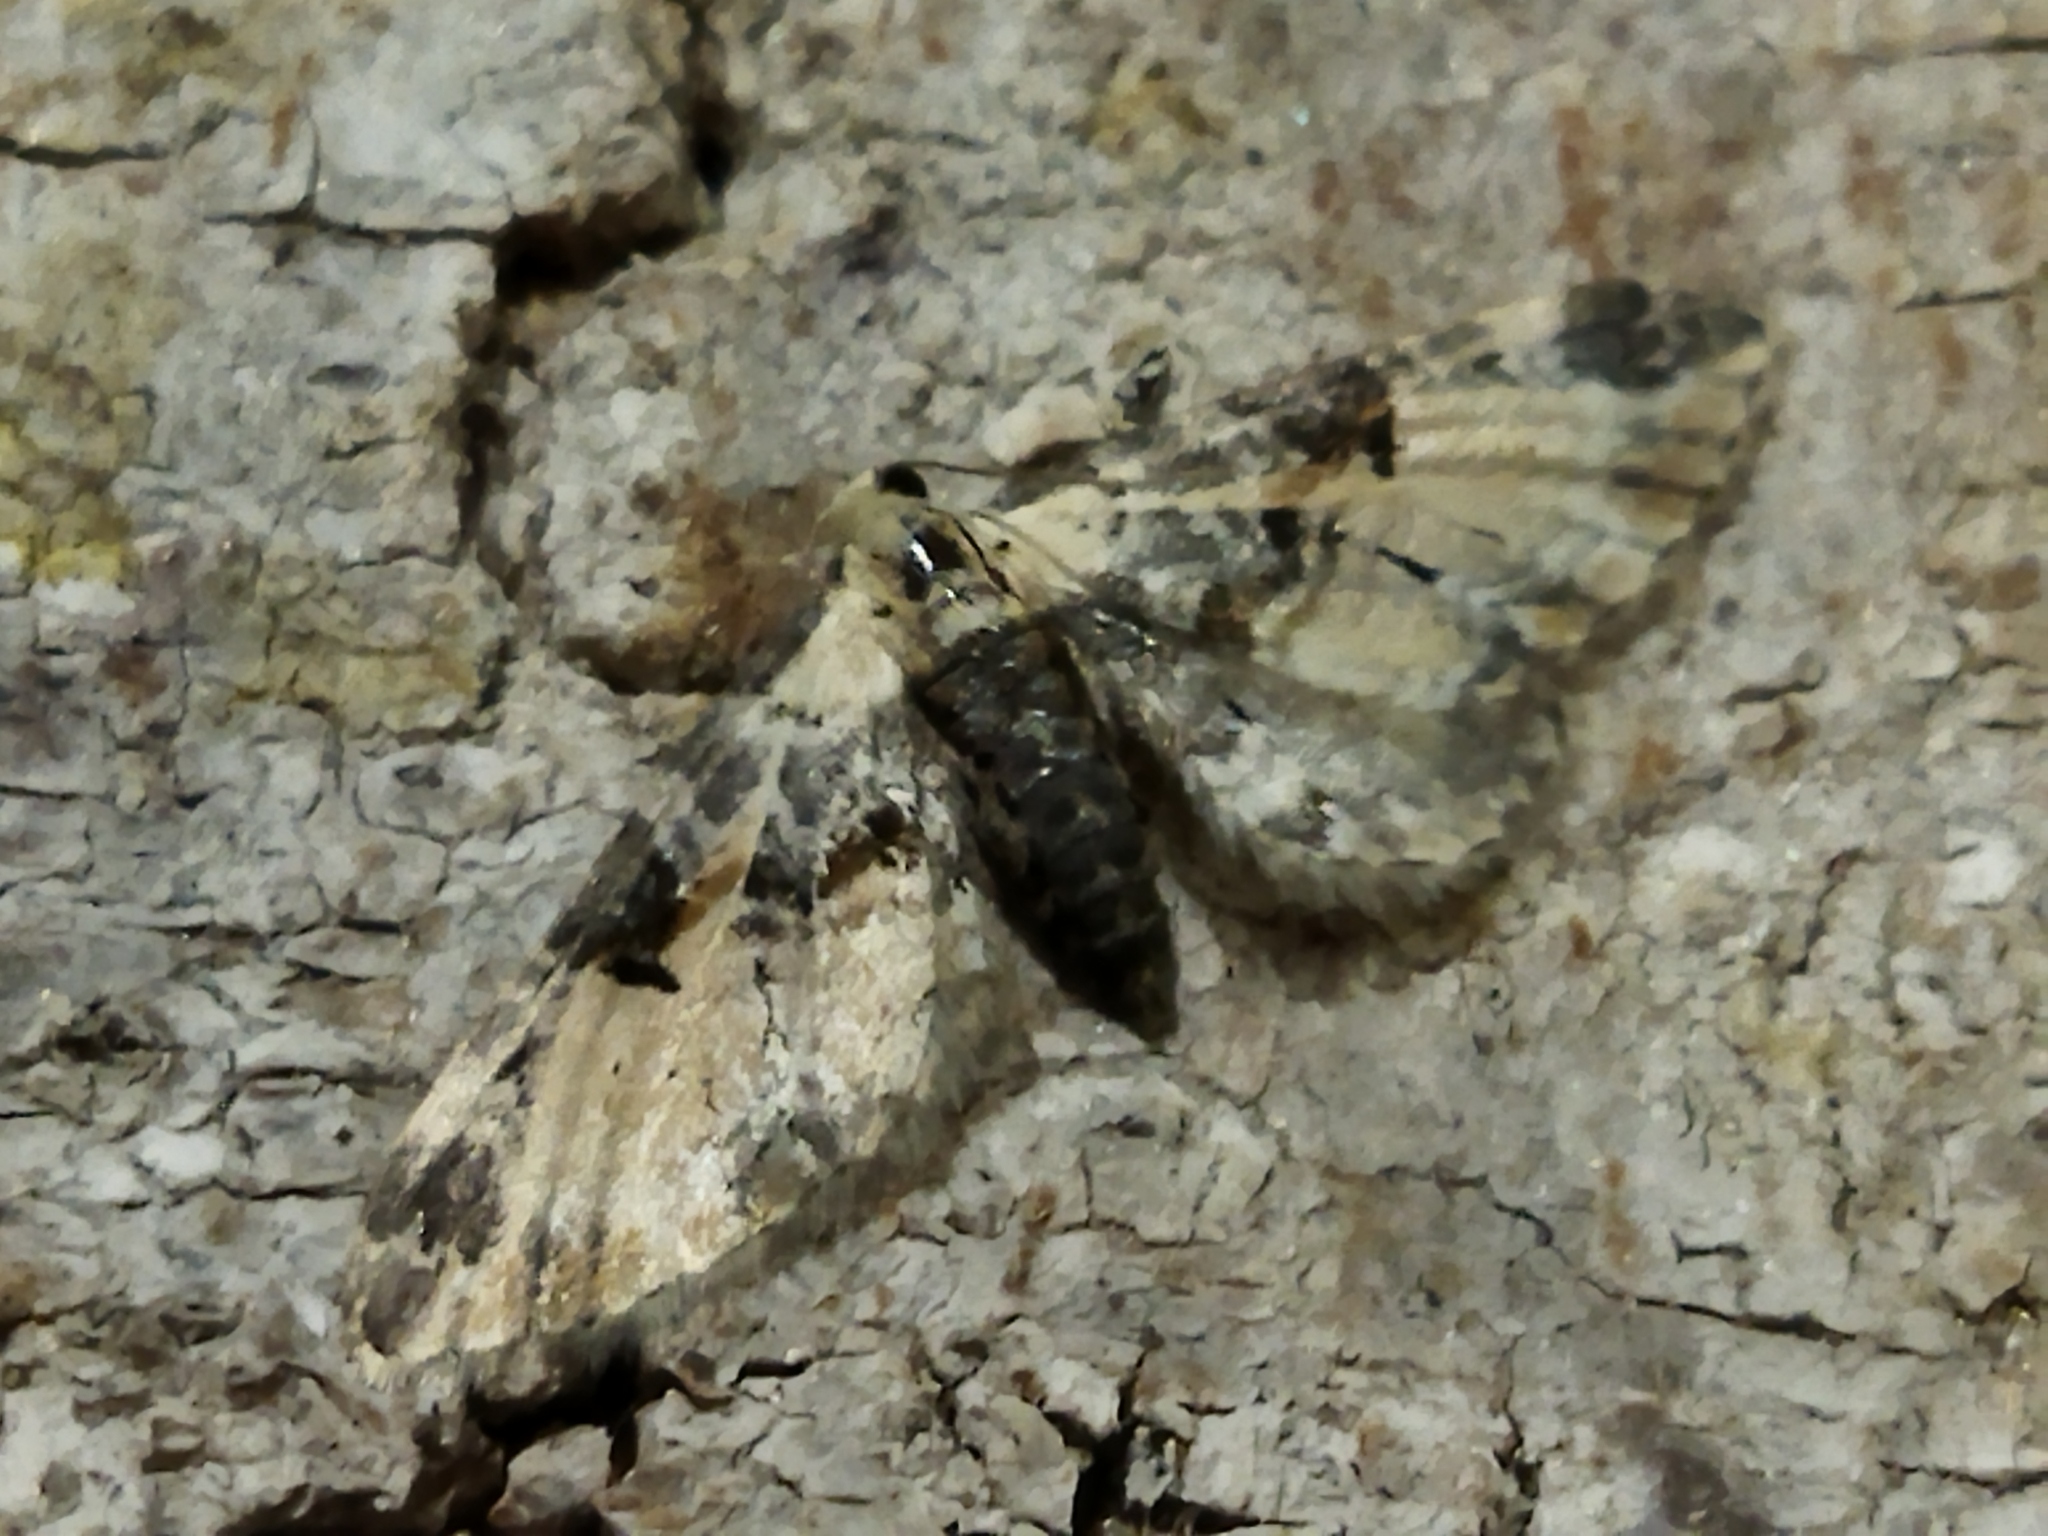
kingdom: Animalia
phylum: Arthropoda
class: Insecta
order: Lepidoptera
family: Geometridae
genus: Eupithecia
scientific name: Eupithecia extremata
